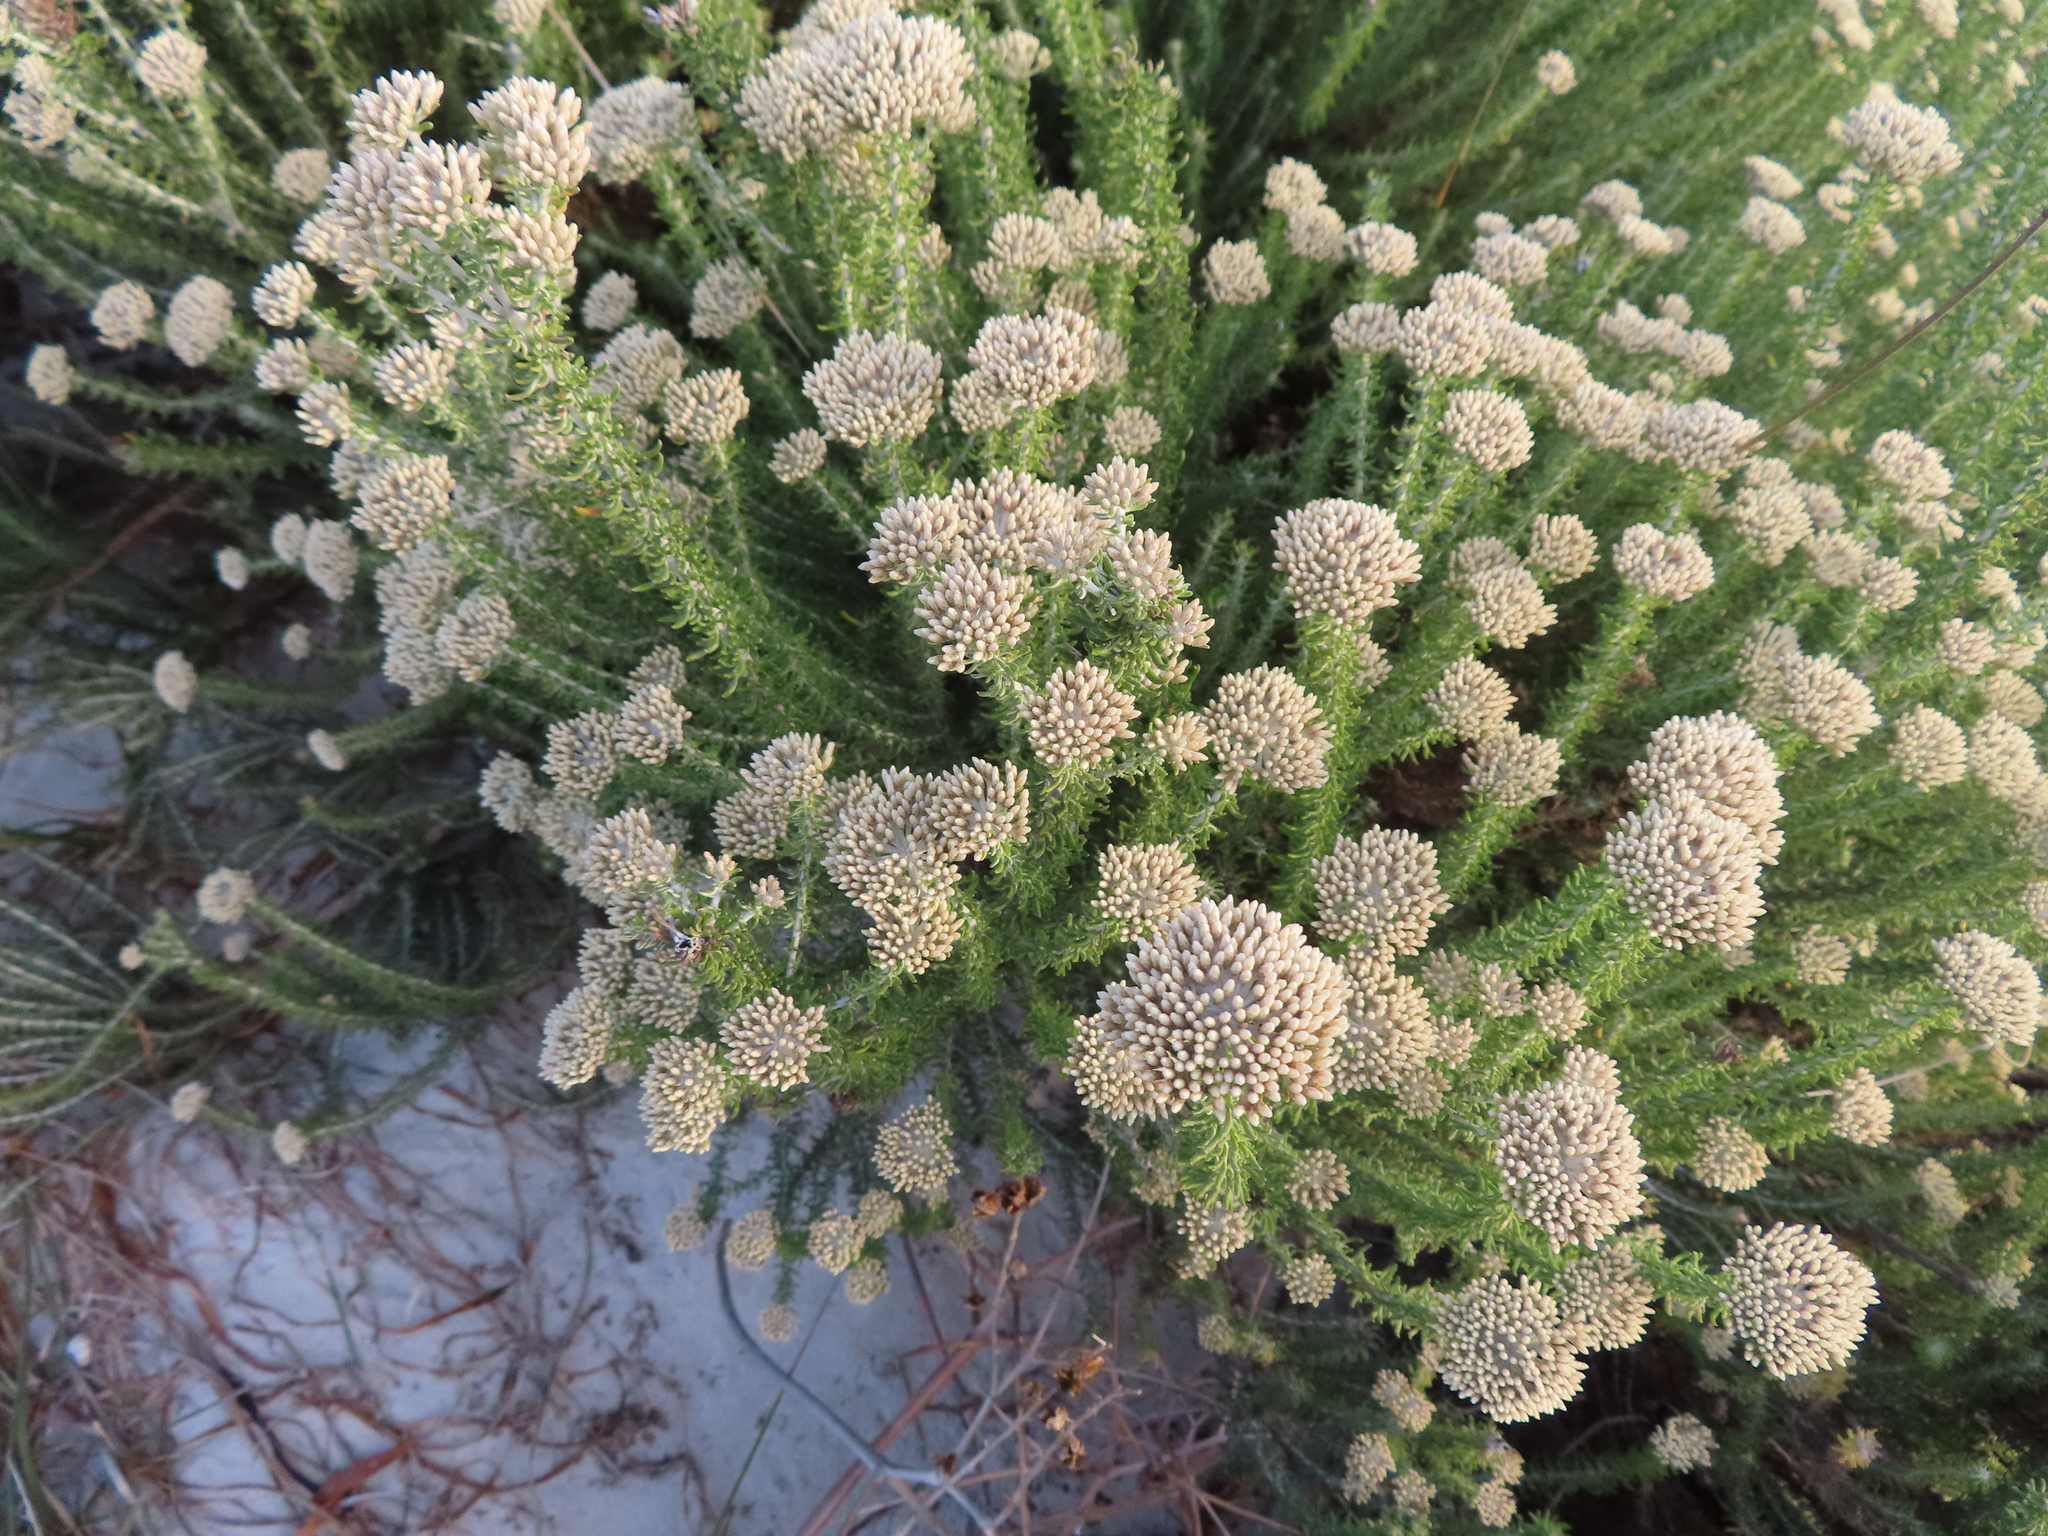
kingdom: Plantae
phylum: Tracheophyta
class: Magnoliopsida
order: Asterales
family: Asteraceae
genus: Metalasia
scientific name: Metalasia densa
